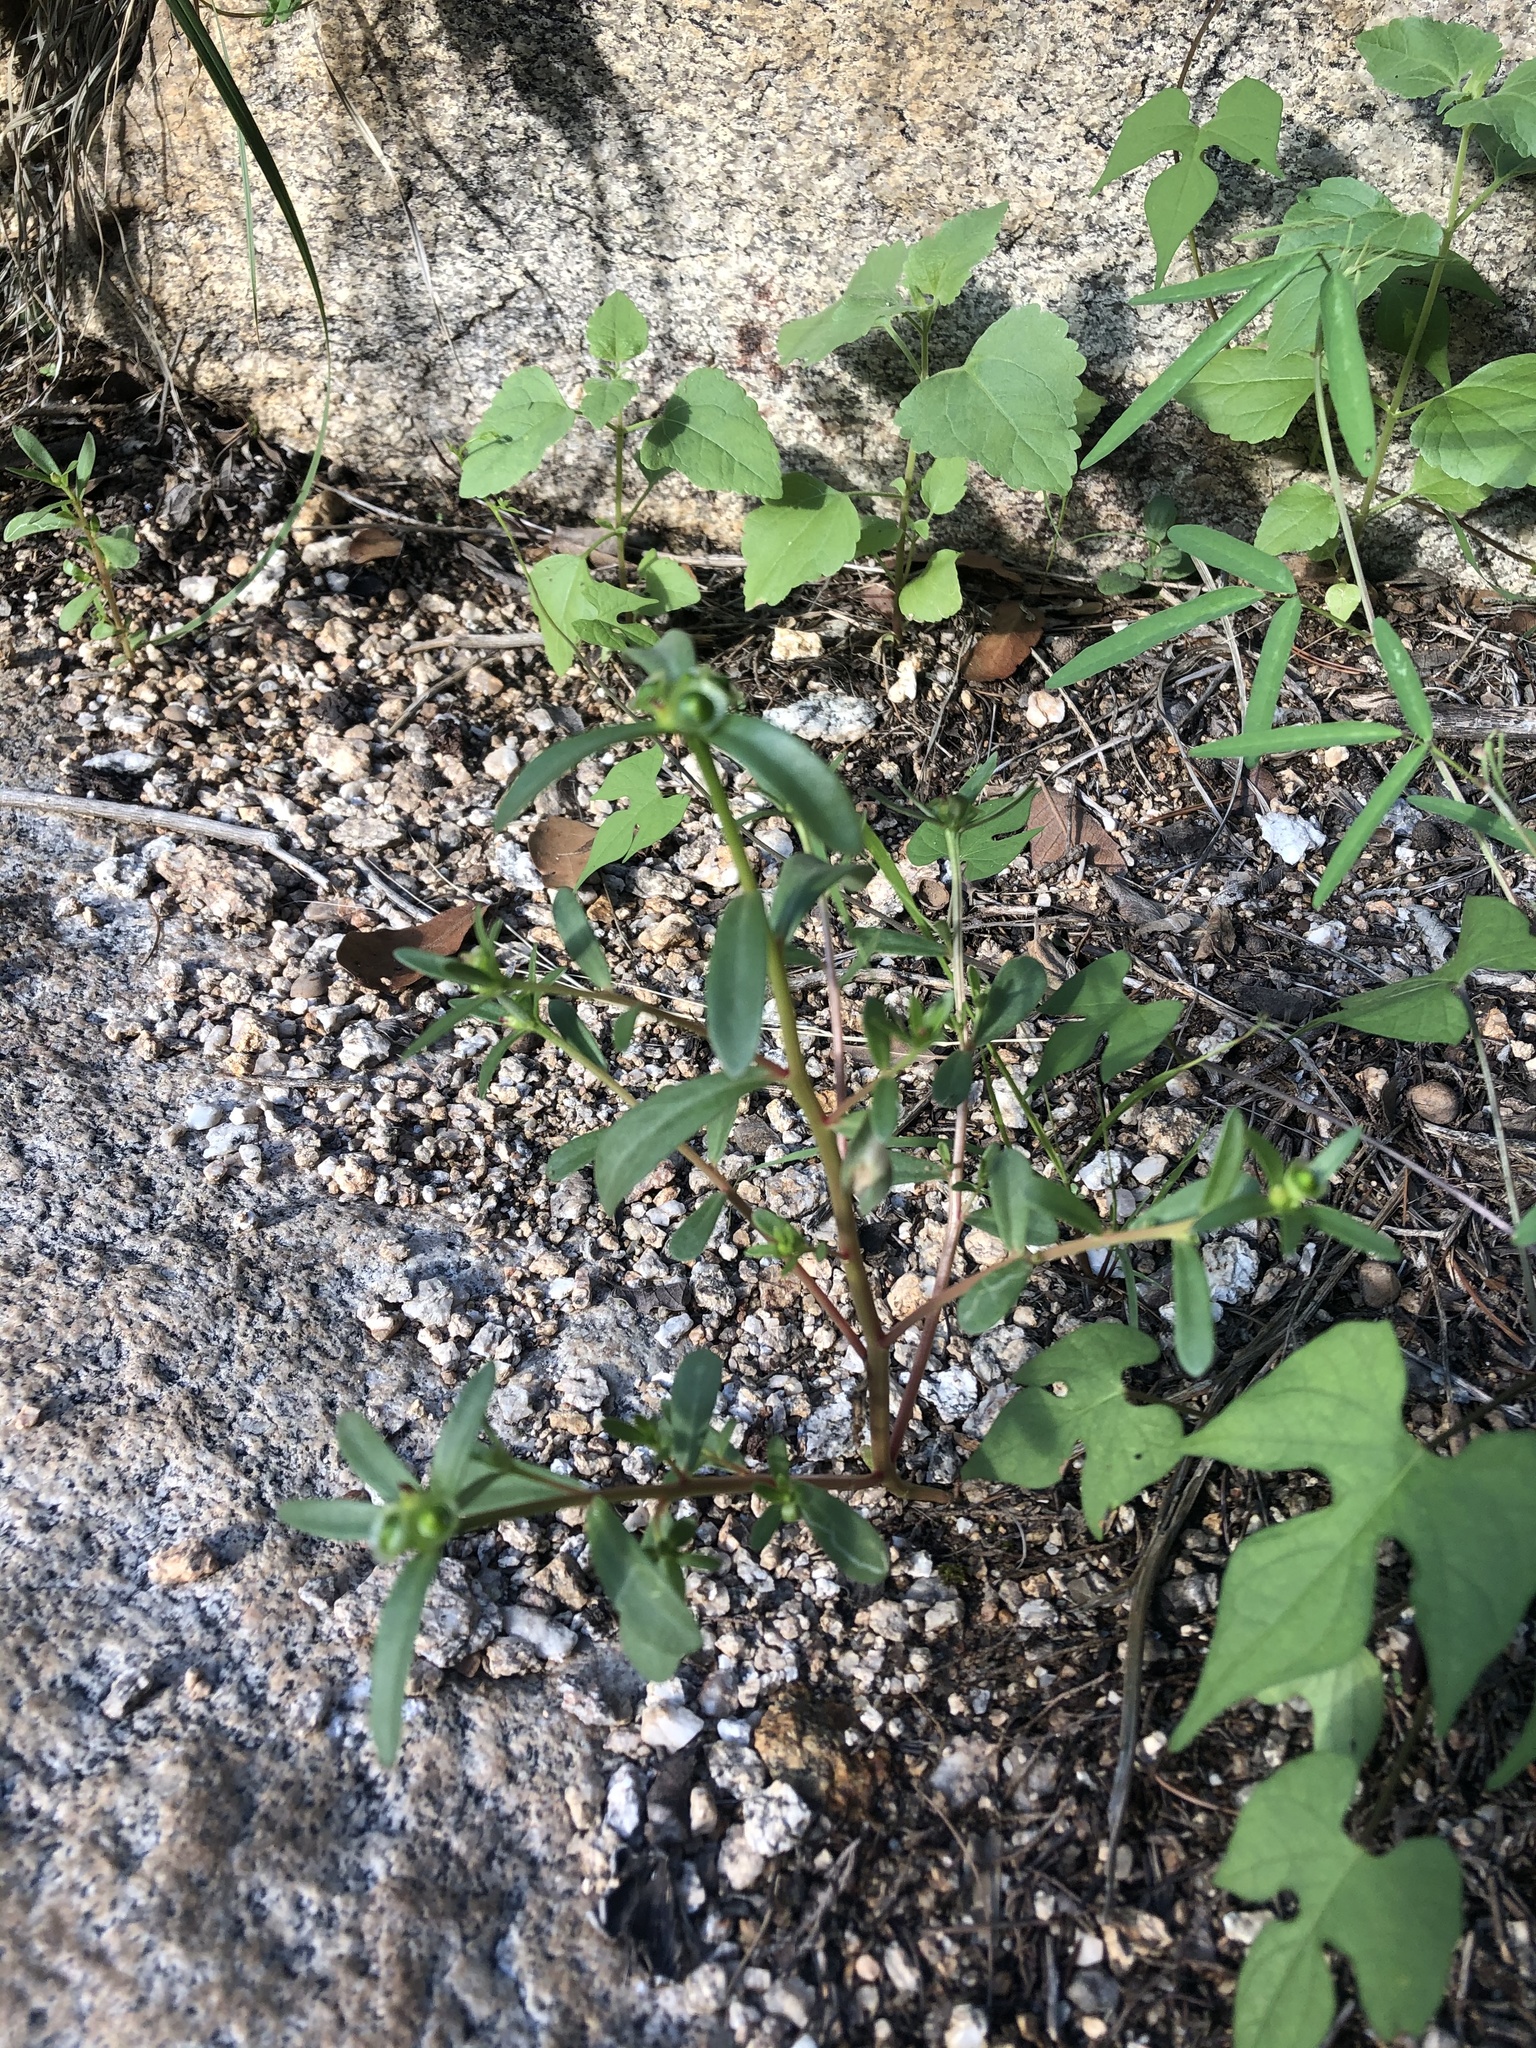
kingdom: Plantae
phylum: Tracheophyta
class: Magnoliopsida
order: Caryophyllales
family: Portulacaceae
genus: Portulaca
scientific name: Portulaca umbraticola
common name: Wingpod purslane
